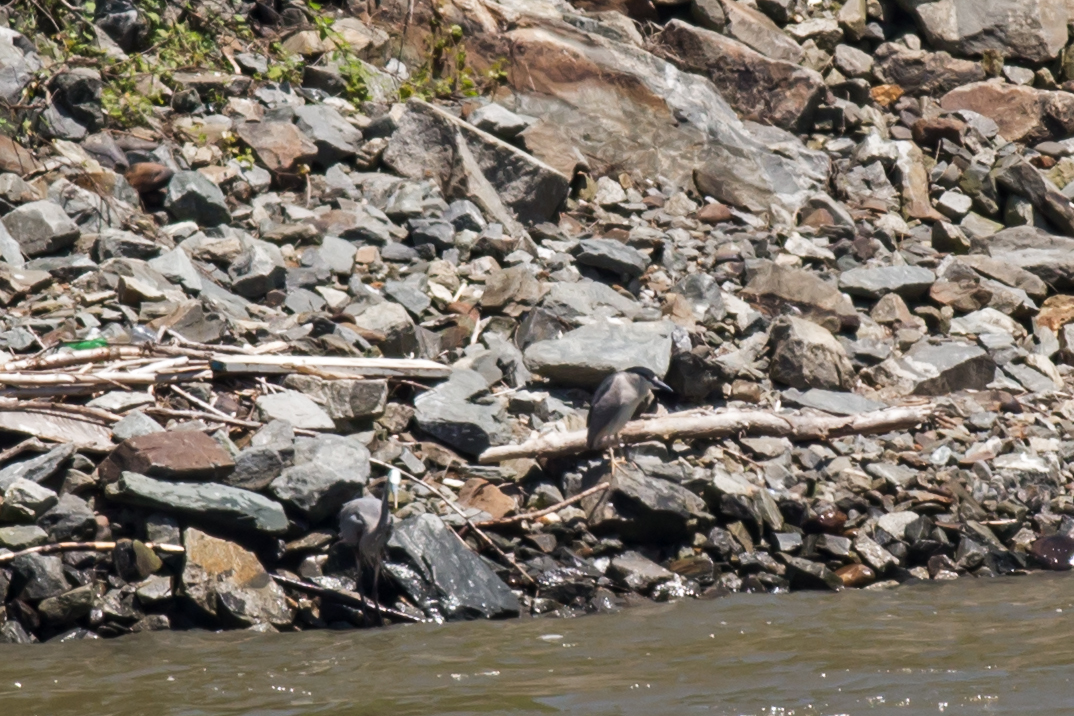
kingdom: Animalia
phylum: Chordata
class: Aves
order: Pelecaniformes
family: Ardeidae
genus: Nycticorax
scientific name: Nycticorax nycticorax
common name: Black-crowned night heron
